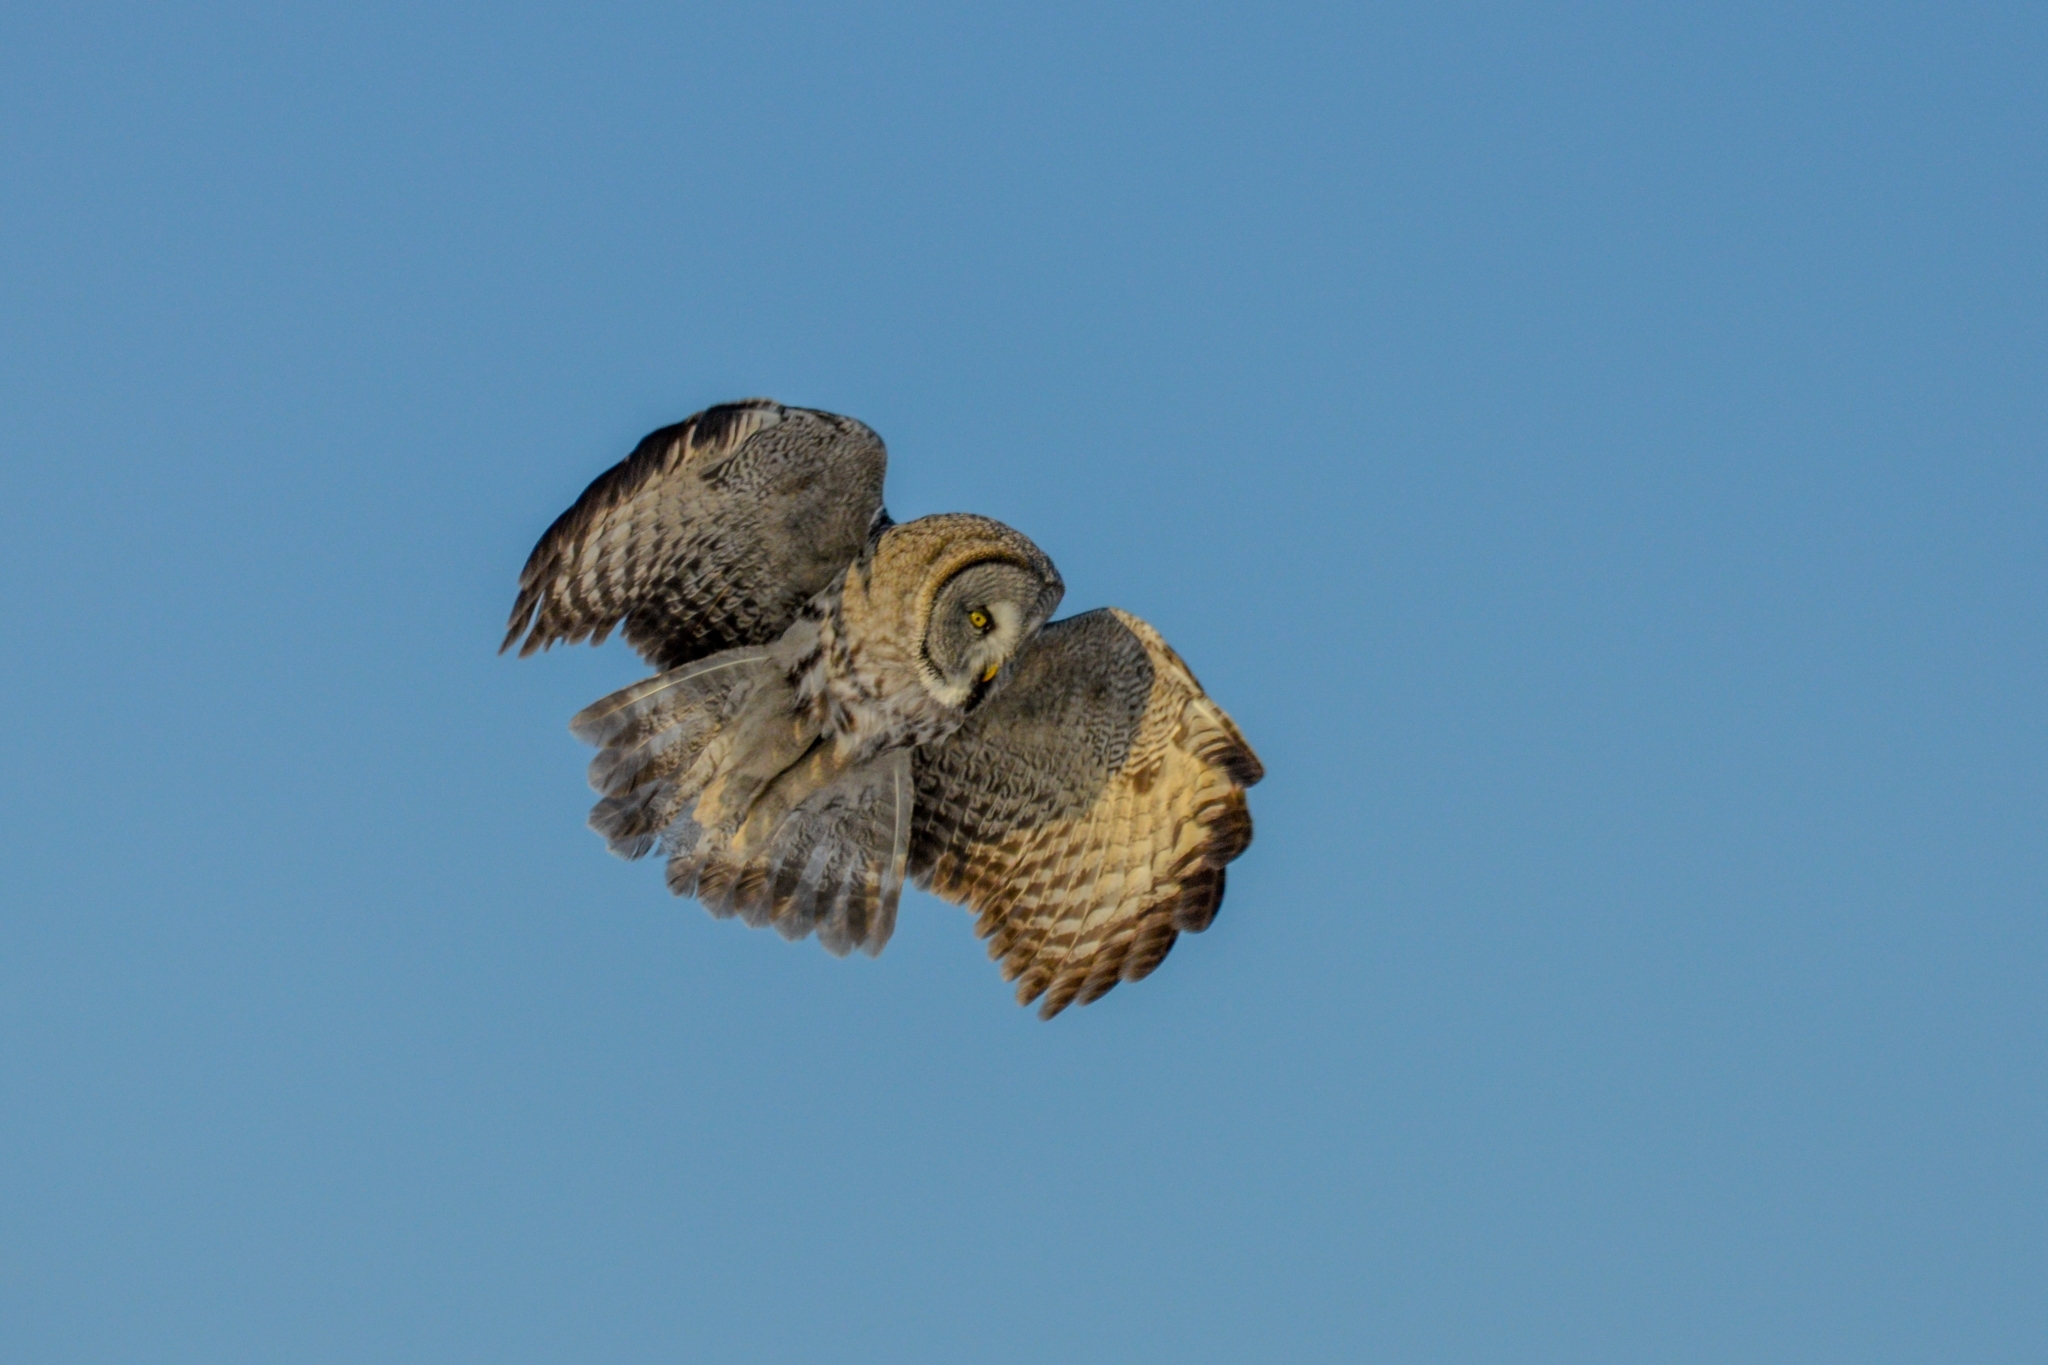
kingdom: Animalia
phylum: Chordata
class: Aves
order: Strigiformes
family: Strigidae
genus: Strix
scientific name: Strix nebulosa
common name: Great grey owl
